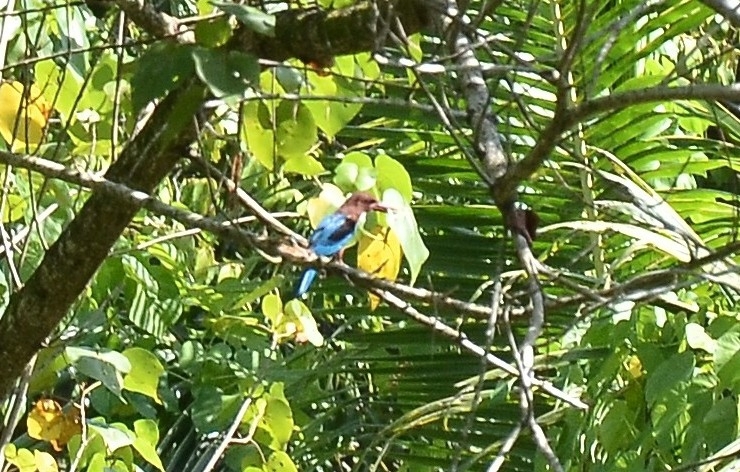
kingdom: Animalia
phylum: Chordata
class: Aves
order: Coraciiformes
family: Alcedinidae
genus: Halcyon
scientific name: Halcyon smyrnensis
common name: White-throated kingfisher
